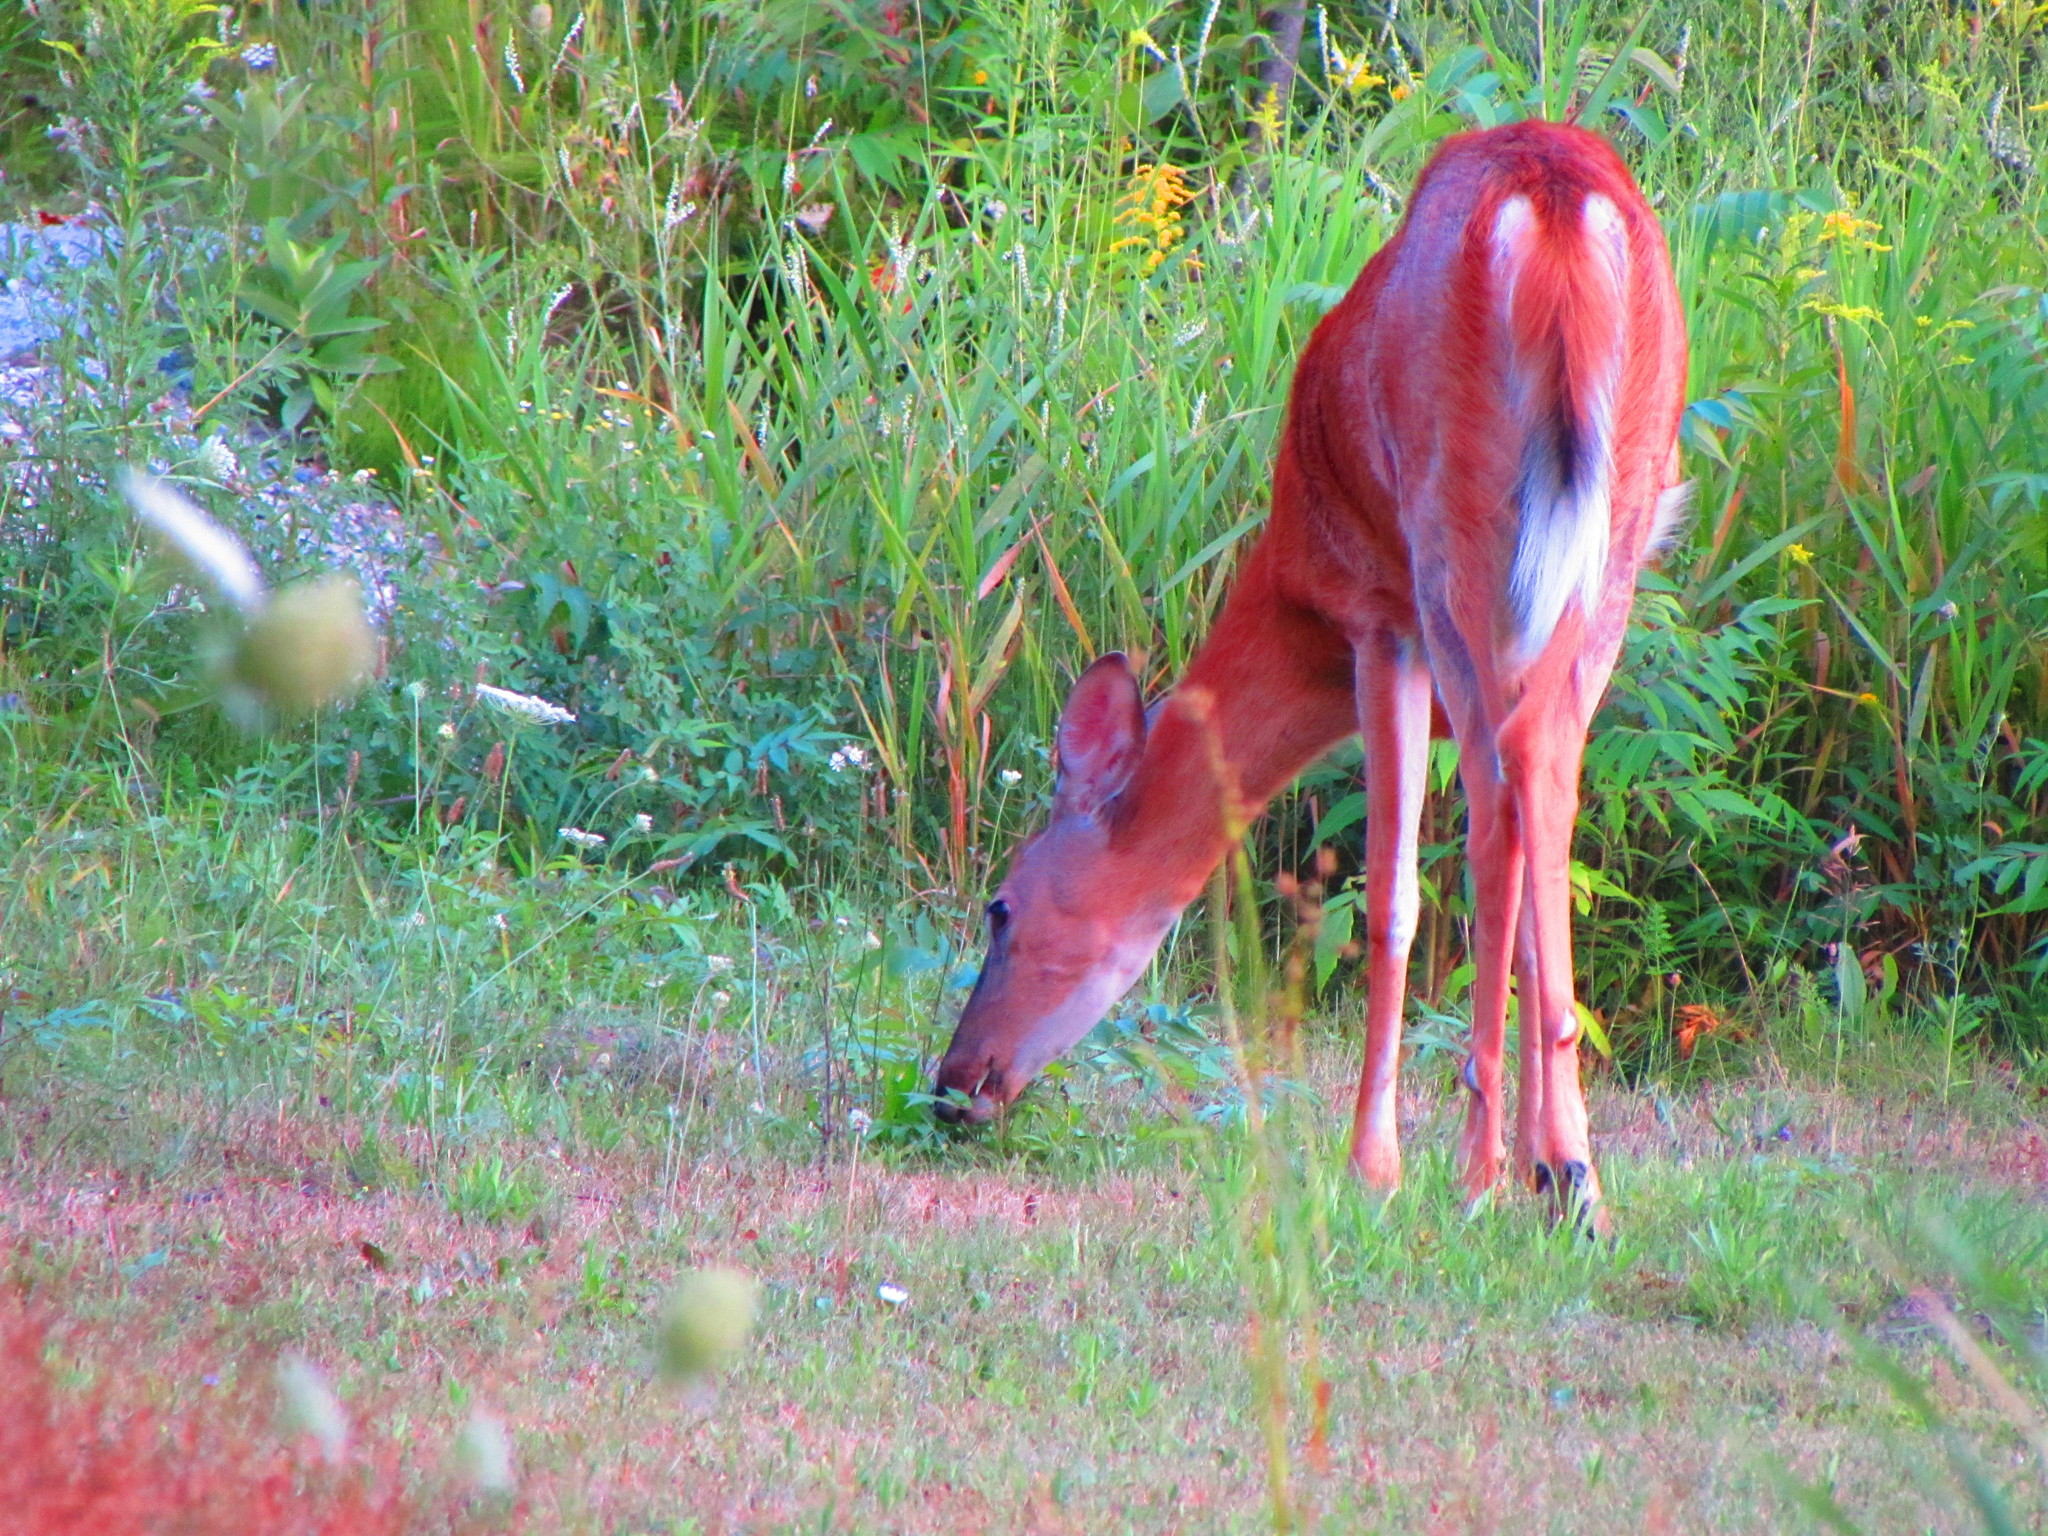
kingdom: Animalia
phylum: Chordata
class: Mammalia
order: Artiodactyla
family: Cervidae
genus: Odocoileus
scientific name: Odocoileus virginianus
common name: White-tailed deer
